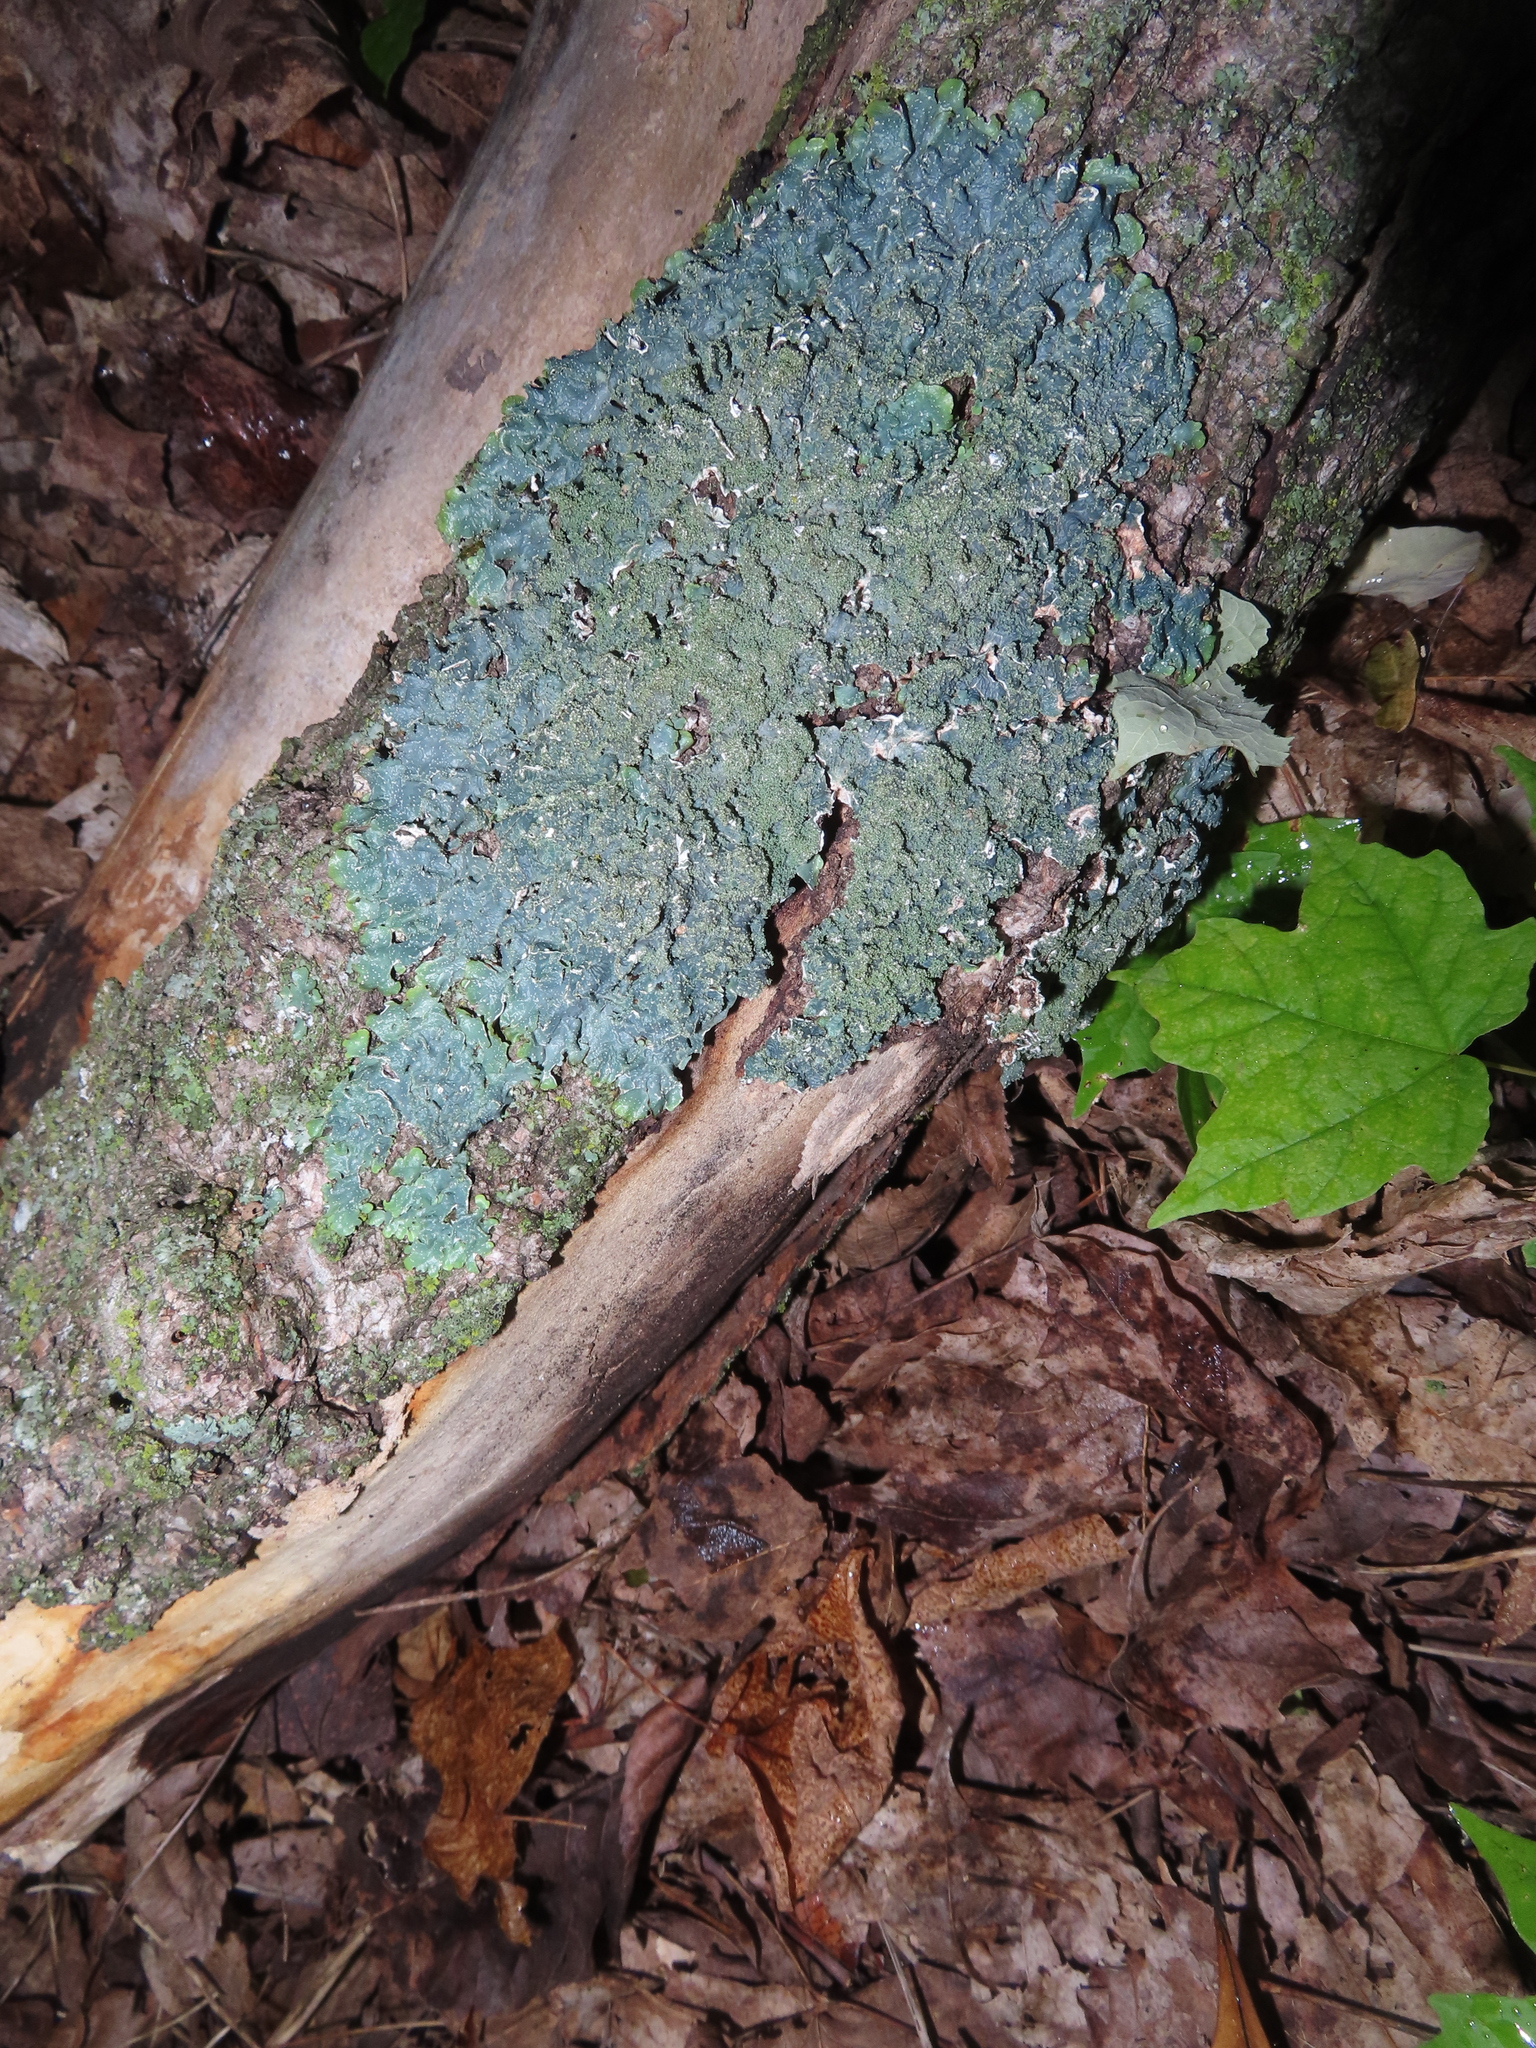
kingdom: Fungi
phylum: Ascomycota
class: Lecanoromycetes
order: Lecanorales
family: Parmeliaceae
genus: Punctelia
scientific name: Punctelia rudecta
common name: Rough speckled shield lichen
